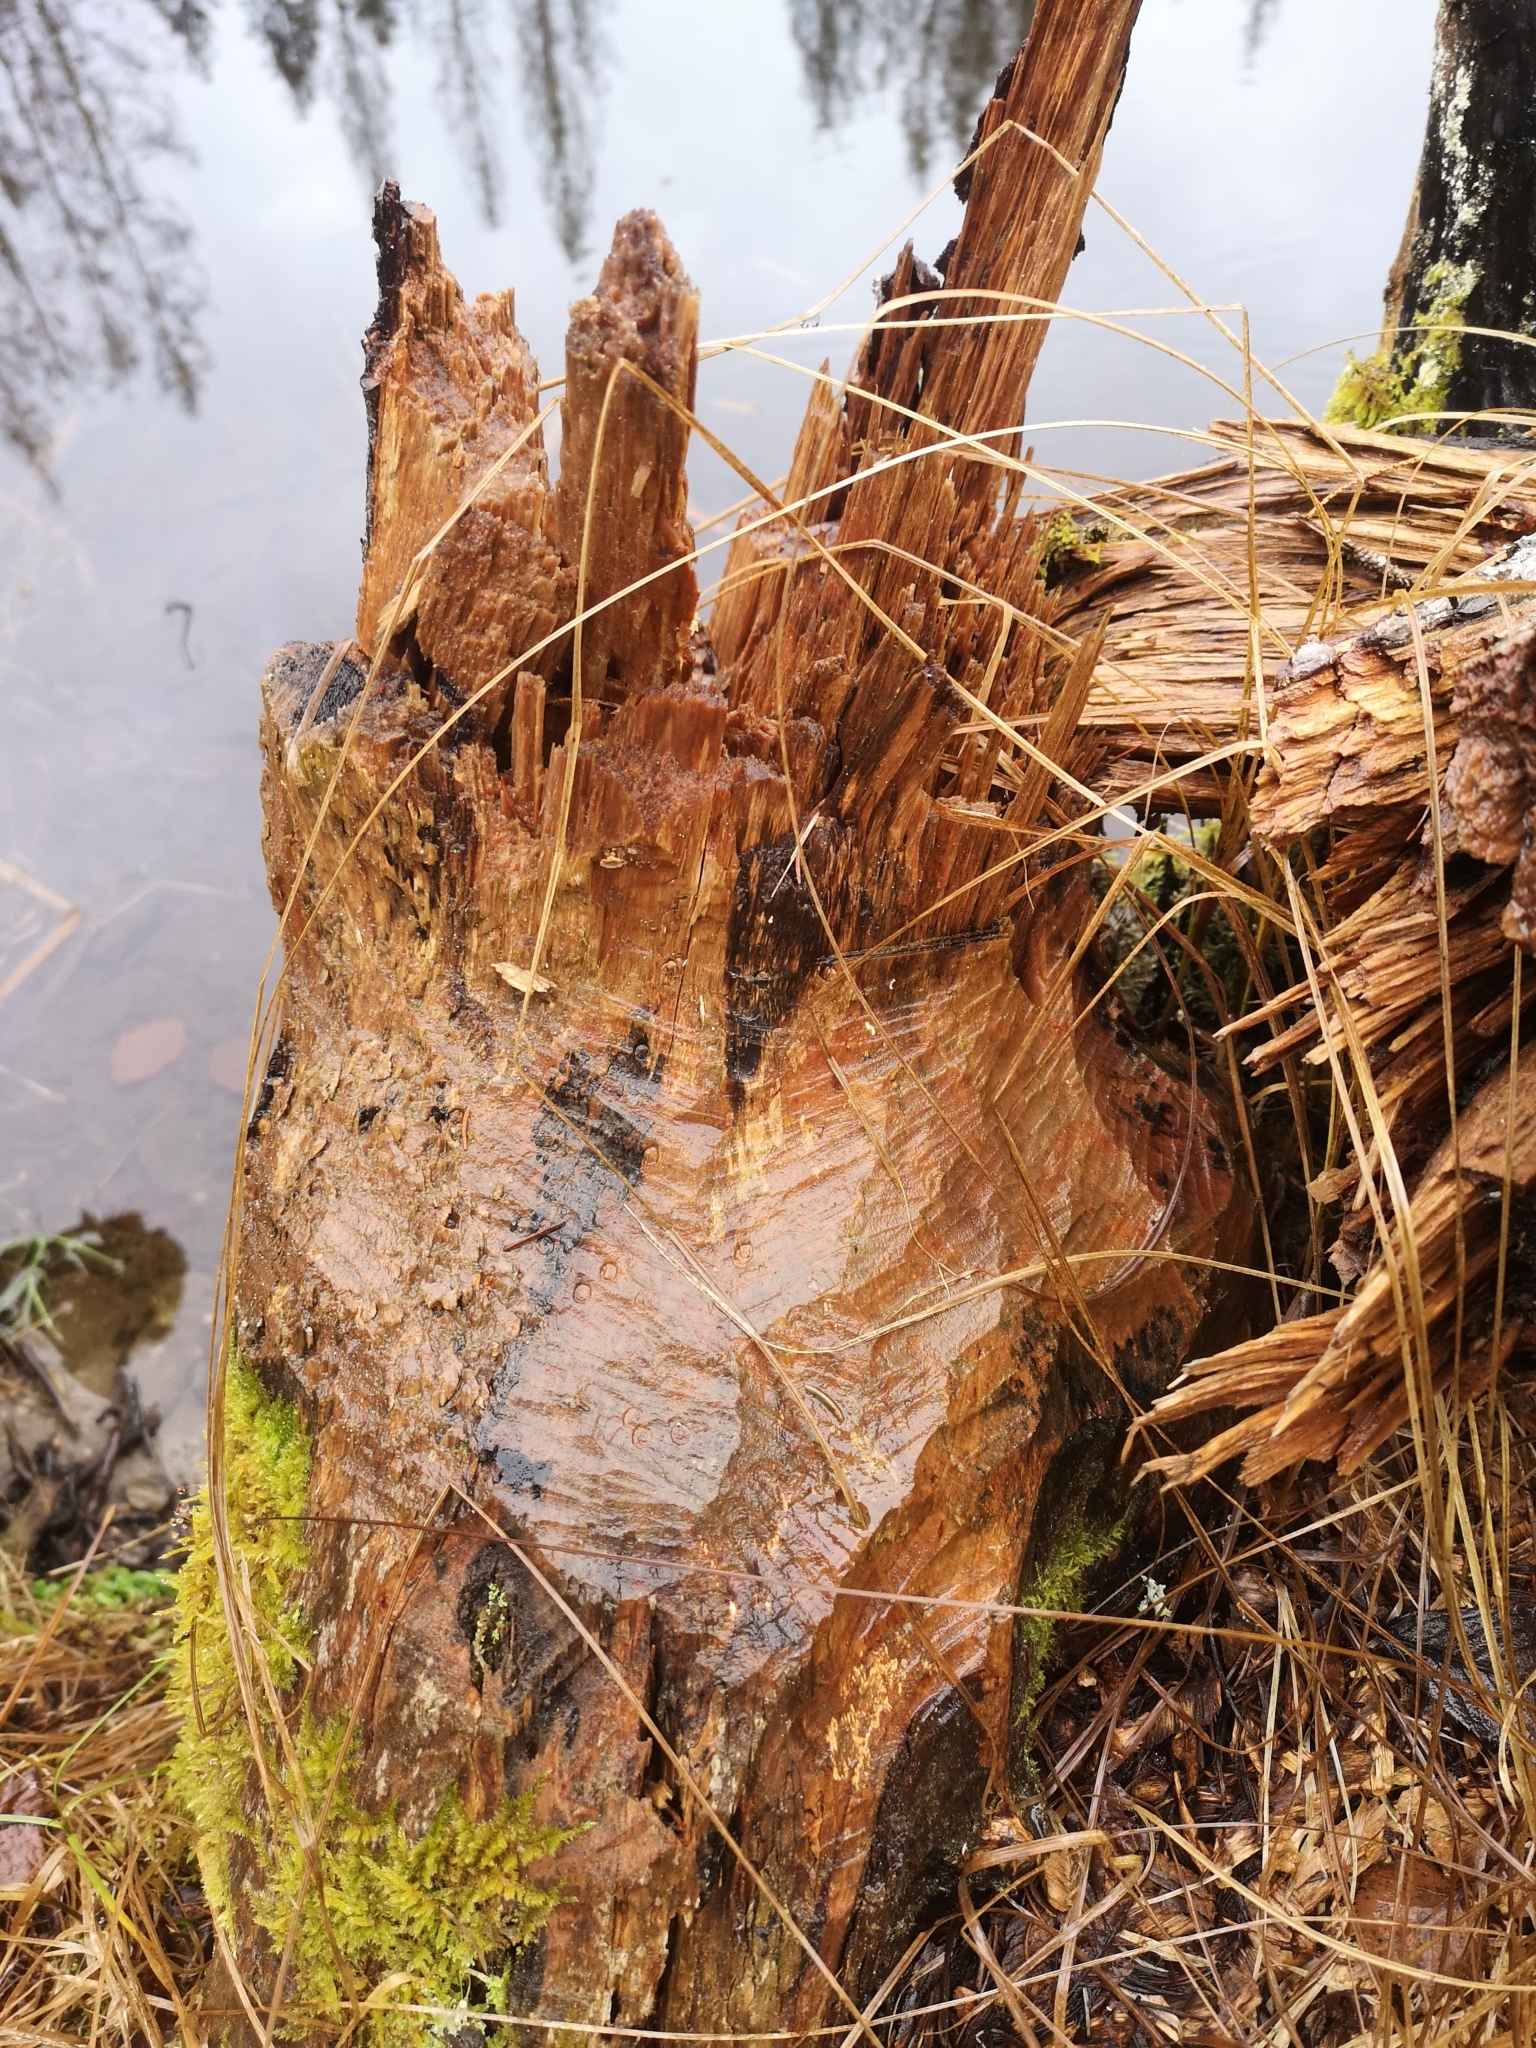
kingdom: Animalia
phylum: Chordata
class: Mammalia
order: Rodentia
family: Castoridae
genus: Castor
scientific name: Castor fiber
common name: Eurasian beaver
